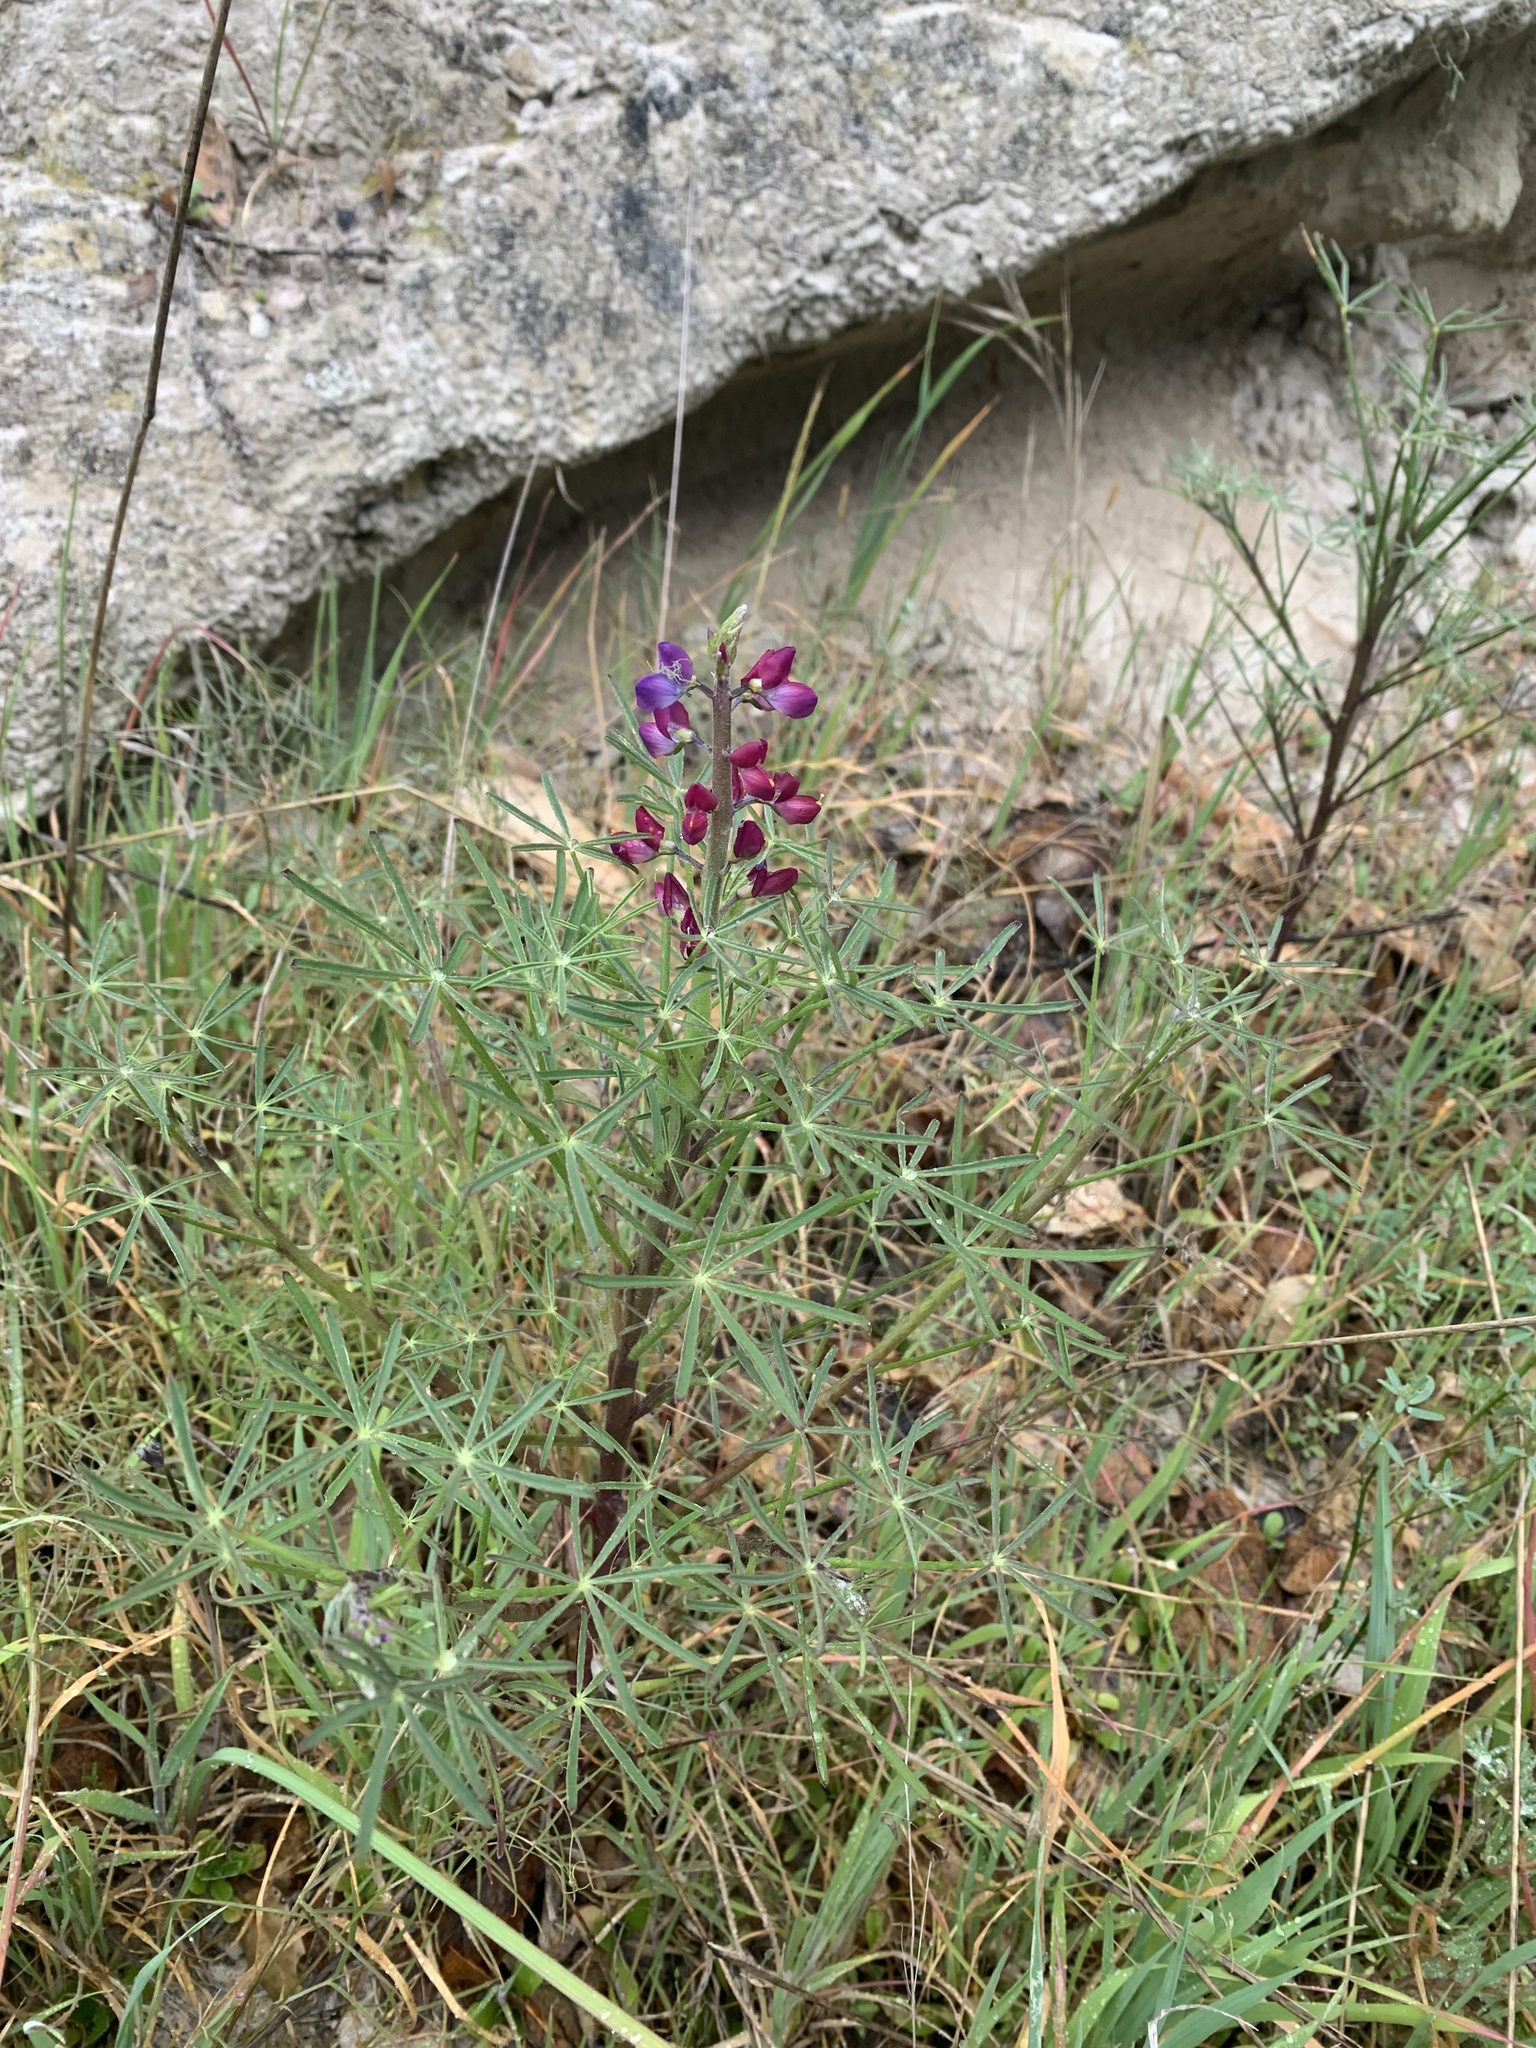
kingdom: Plantae
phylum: Tracheophyta
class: Magnoliopsida
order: Fabales
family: Fabaceae
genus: Lupinus
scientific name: Lupinus truncatus
